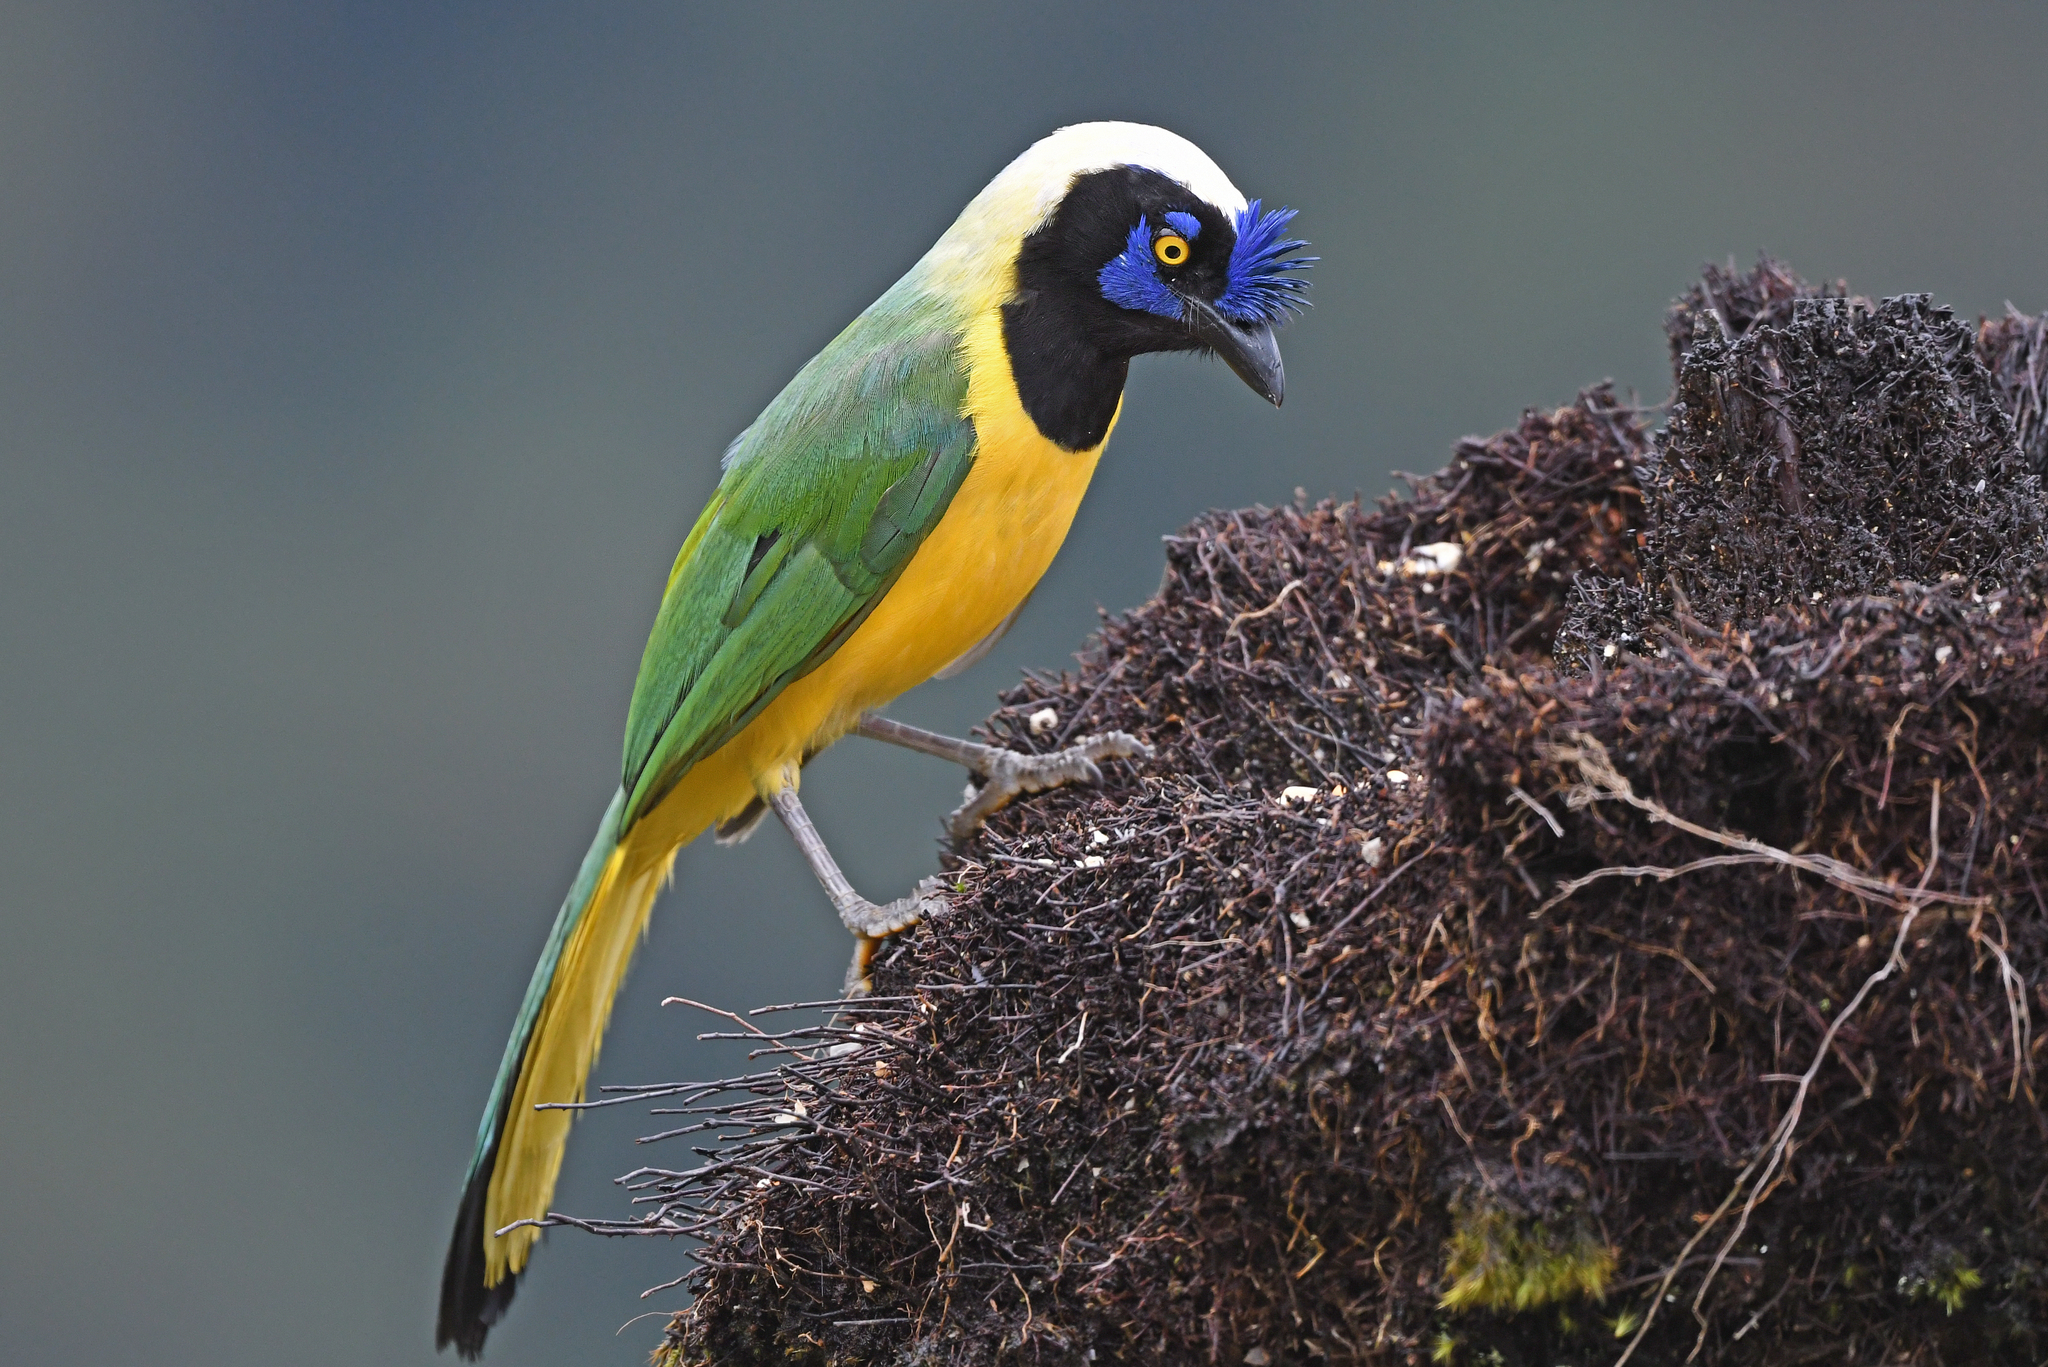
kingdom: Animalia
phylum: Chordata
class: Aves
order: Passeriformes
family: Corvidae
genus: Cyanocorax
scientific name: Cyanocorax yncas
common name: Green jay
